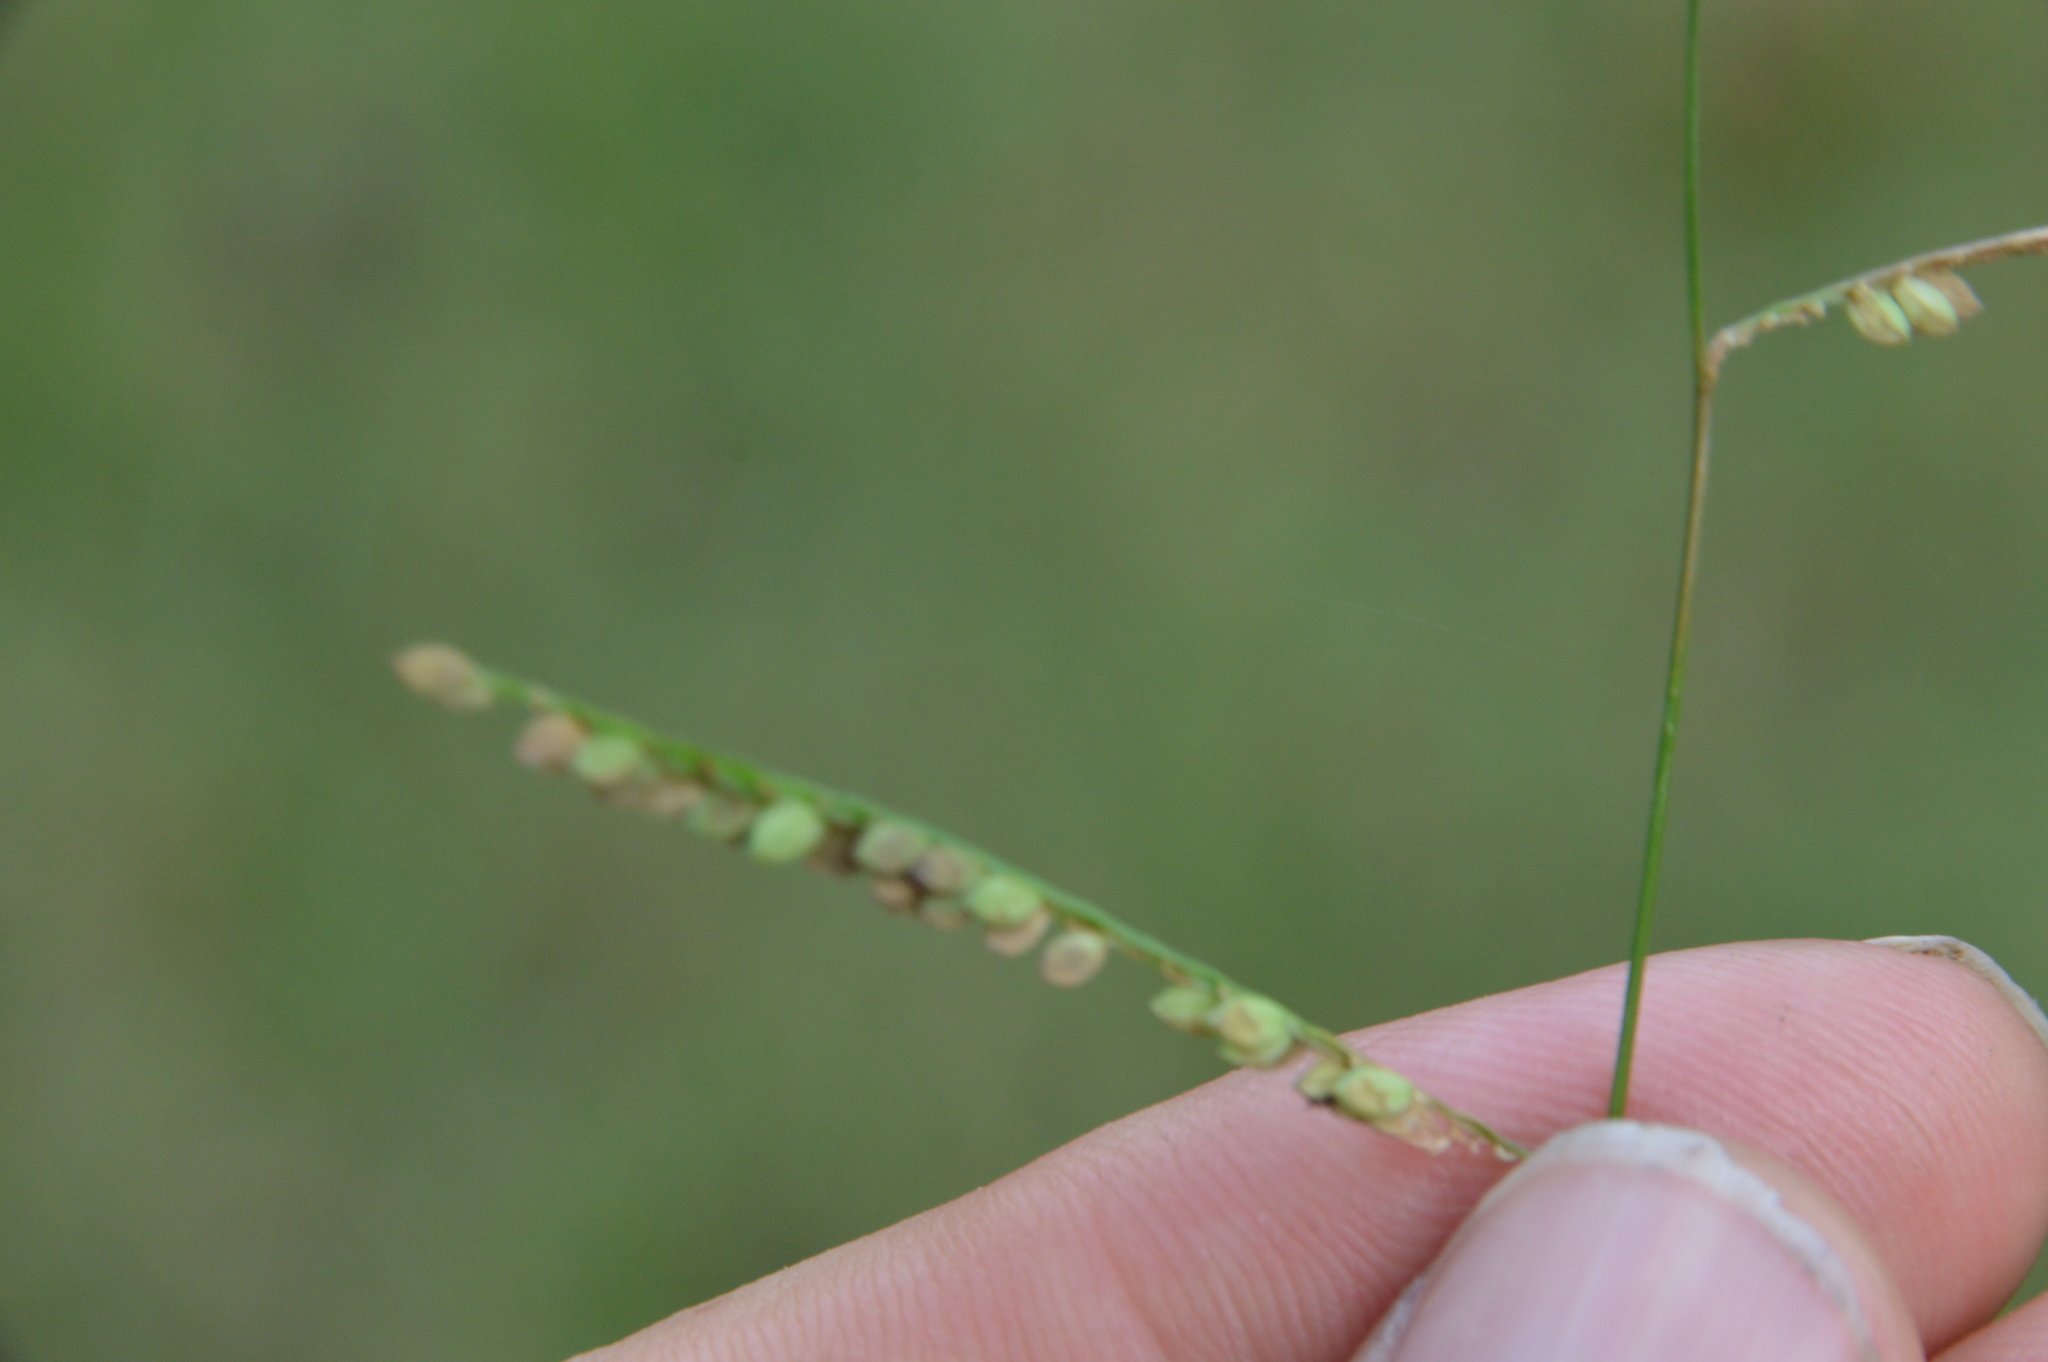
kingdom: Plantae
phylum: Tracheophyta
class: Liliopsida
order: Poales
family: Poaceae
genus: Paspalum
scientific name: Paspalum denticulatum
